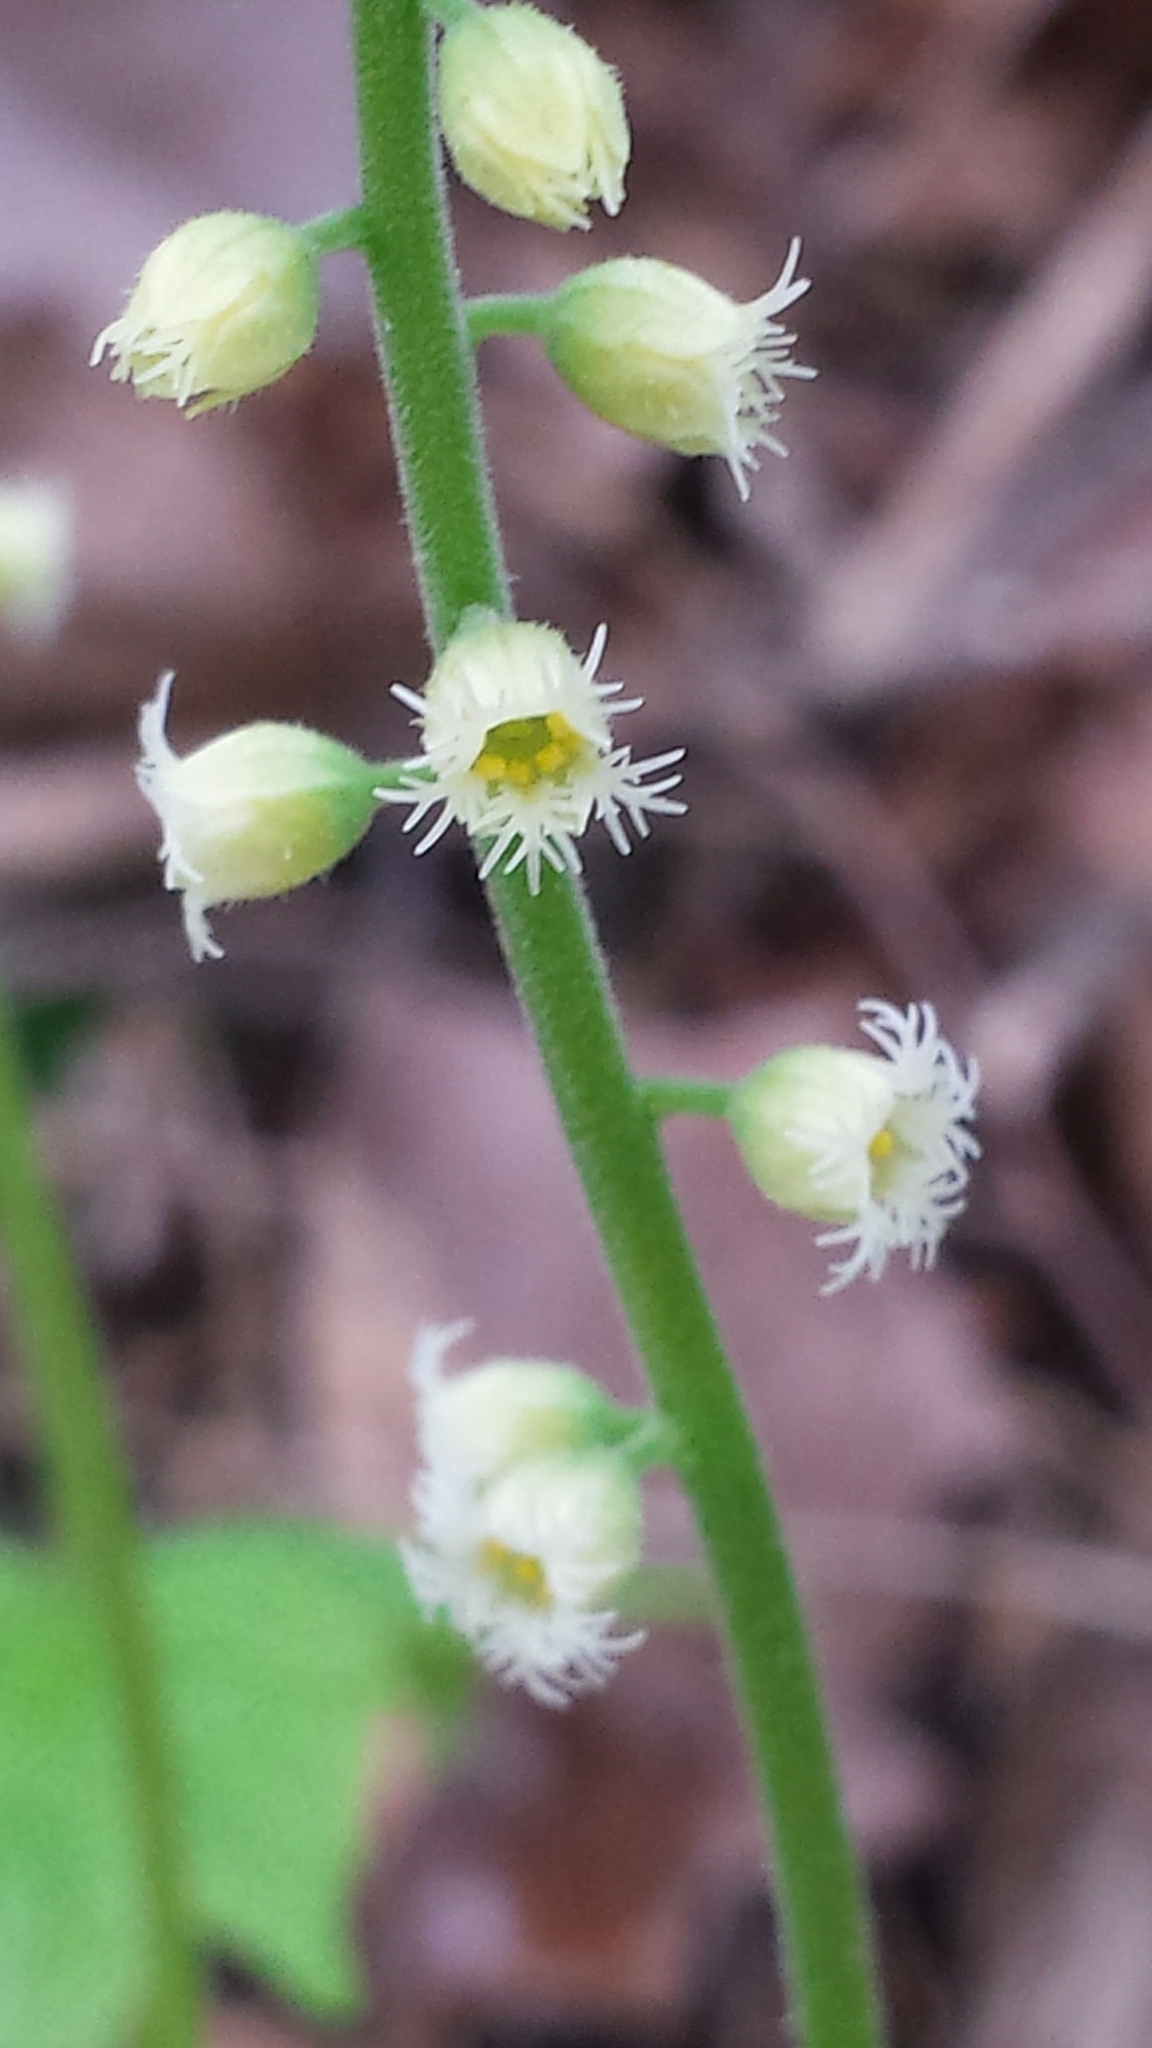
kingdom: Plantae
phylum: Tracheophyta
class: Magnoliopsida
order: Saxifragales
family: Saxifragaceae
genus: Mitella
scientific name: Mitella diphylla
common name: Coolwort
